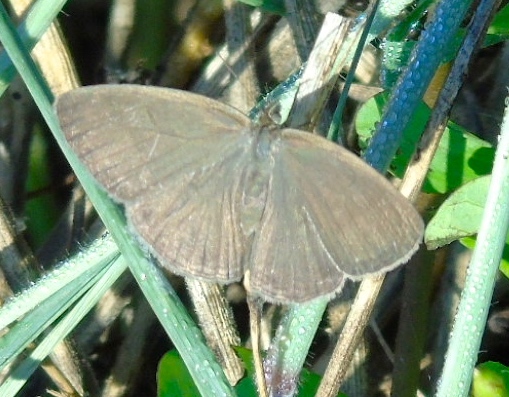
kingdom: Animalia
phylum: Arthropoda
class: Insecta
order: Lepidoptera
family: Satyridae
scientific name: Satyridae
